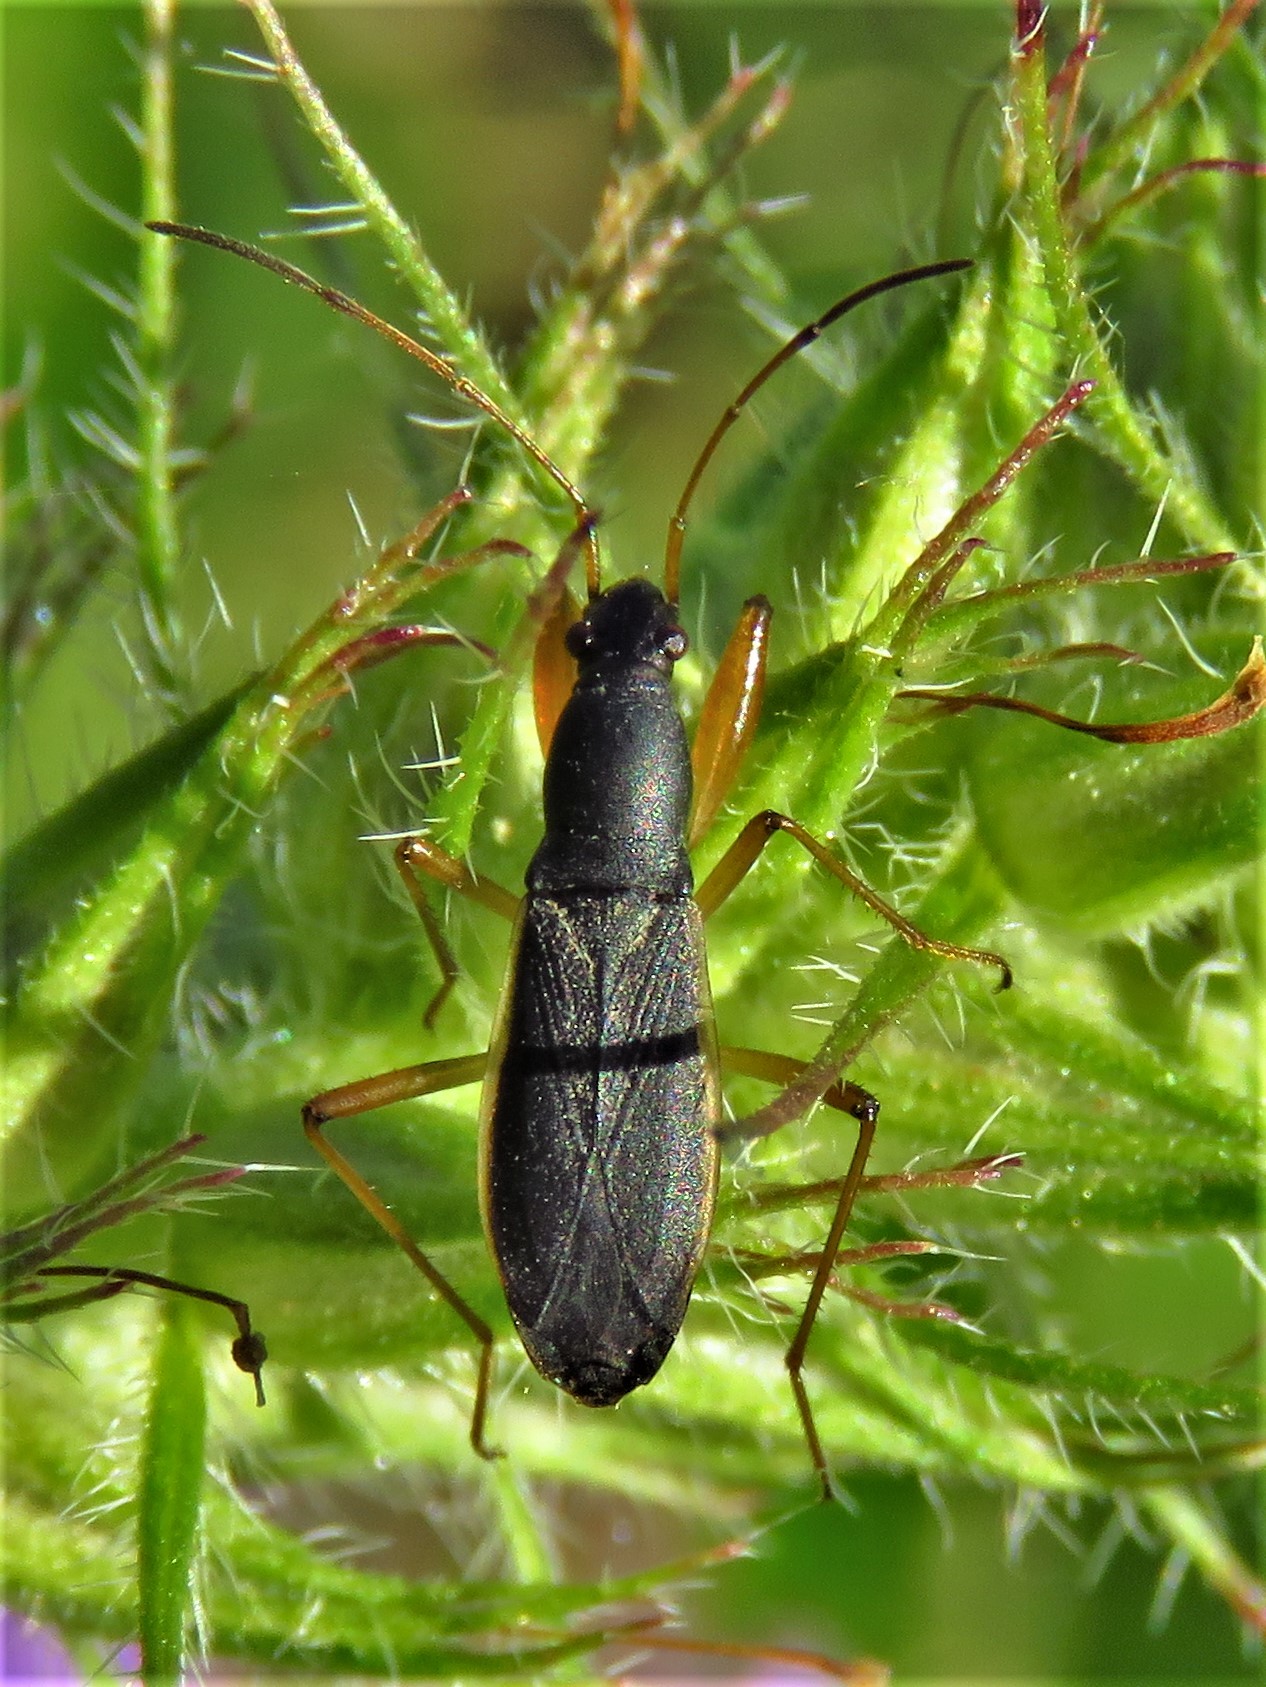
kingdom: Animalia
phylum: Arthropoda
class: Insecta
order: Hemiptera
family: Rhyparochromidae
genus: Cnemodus
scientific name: Cnemodus mavortius
